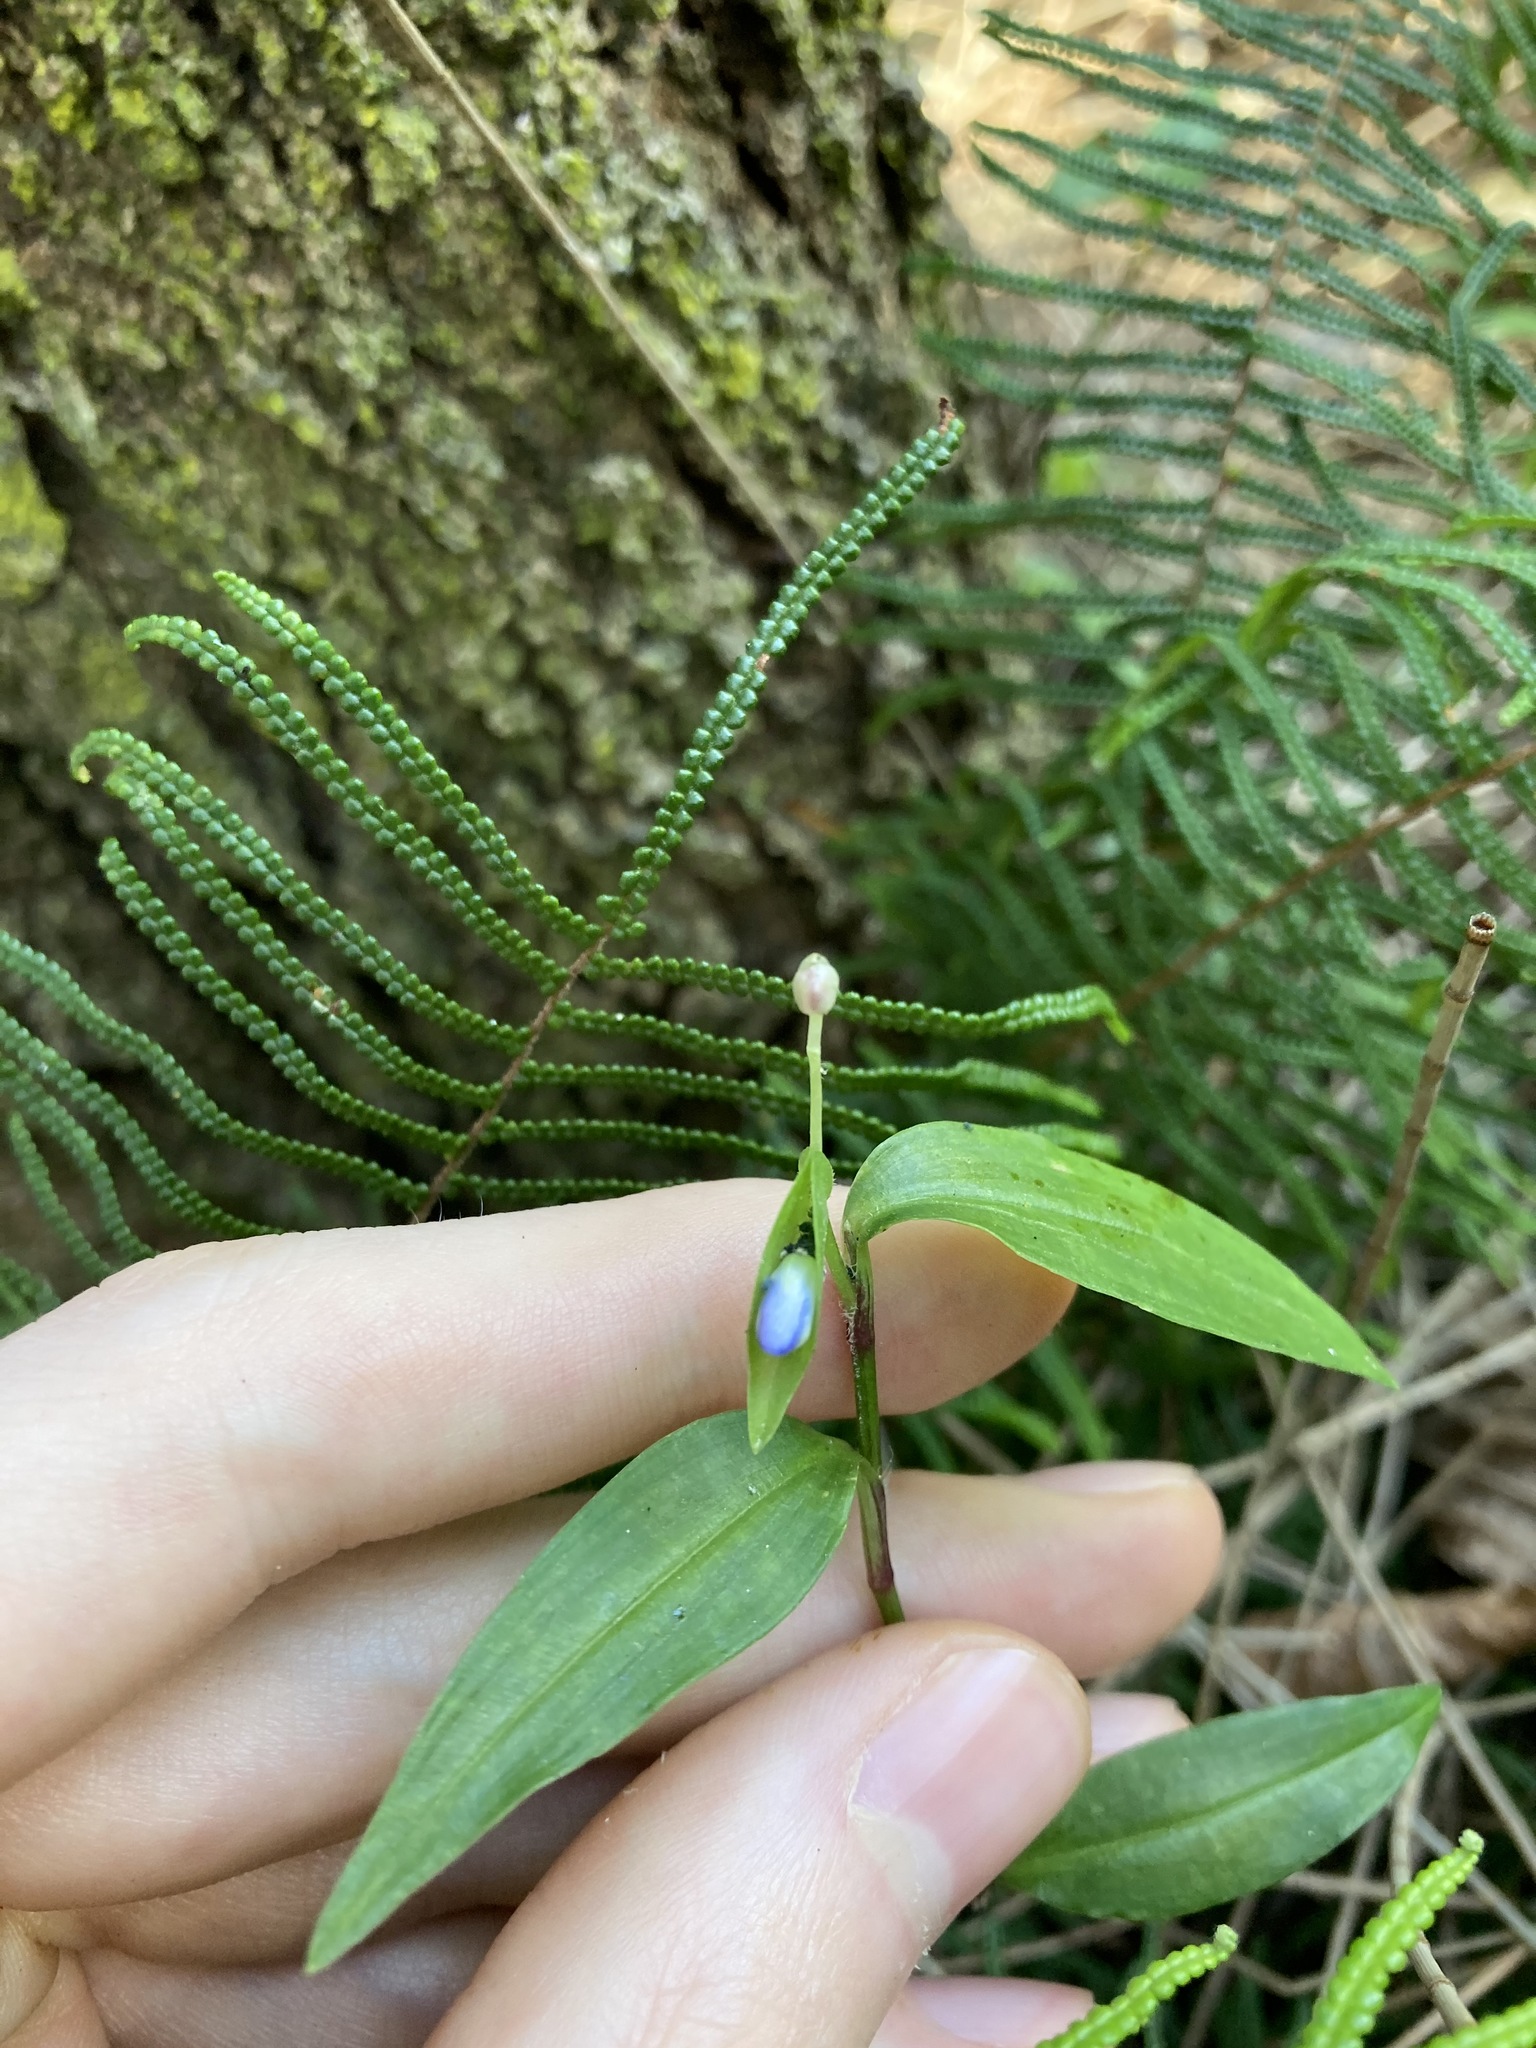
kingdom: Plantae
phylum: Tracheophyta
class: Liliopsida
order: Commelinales
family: Commelinaceae
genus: Commelina
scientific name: Commelina cyanea
